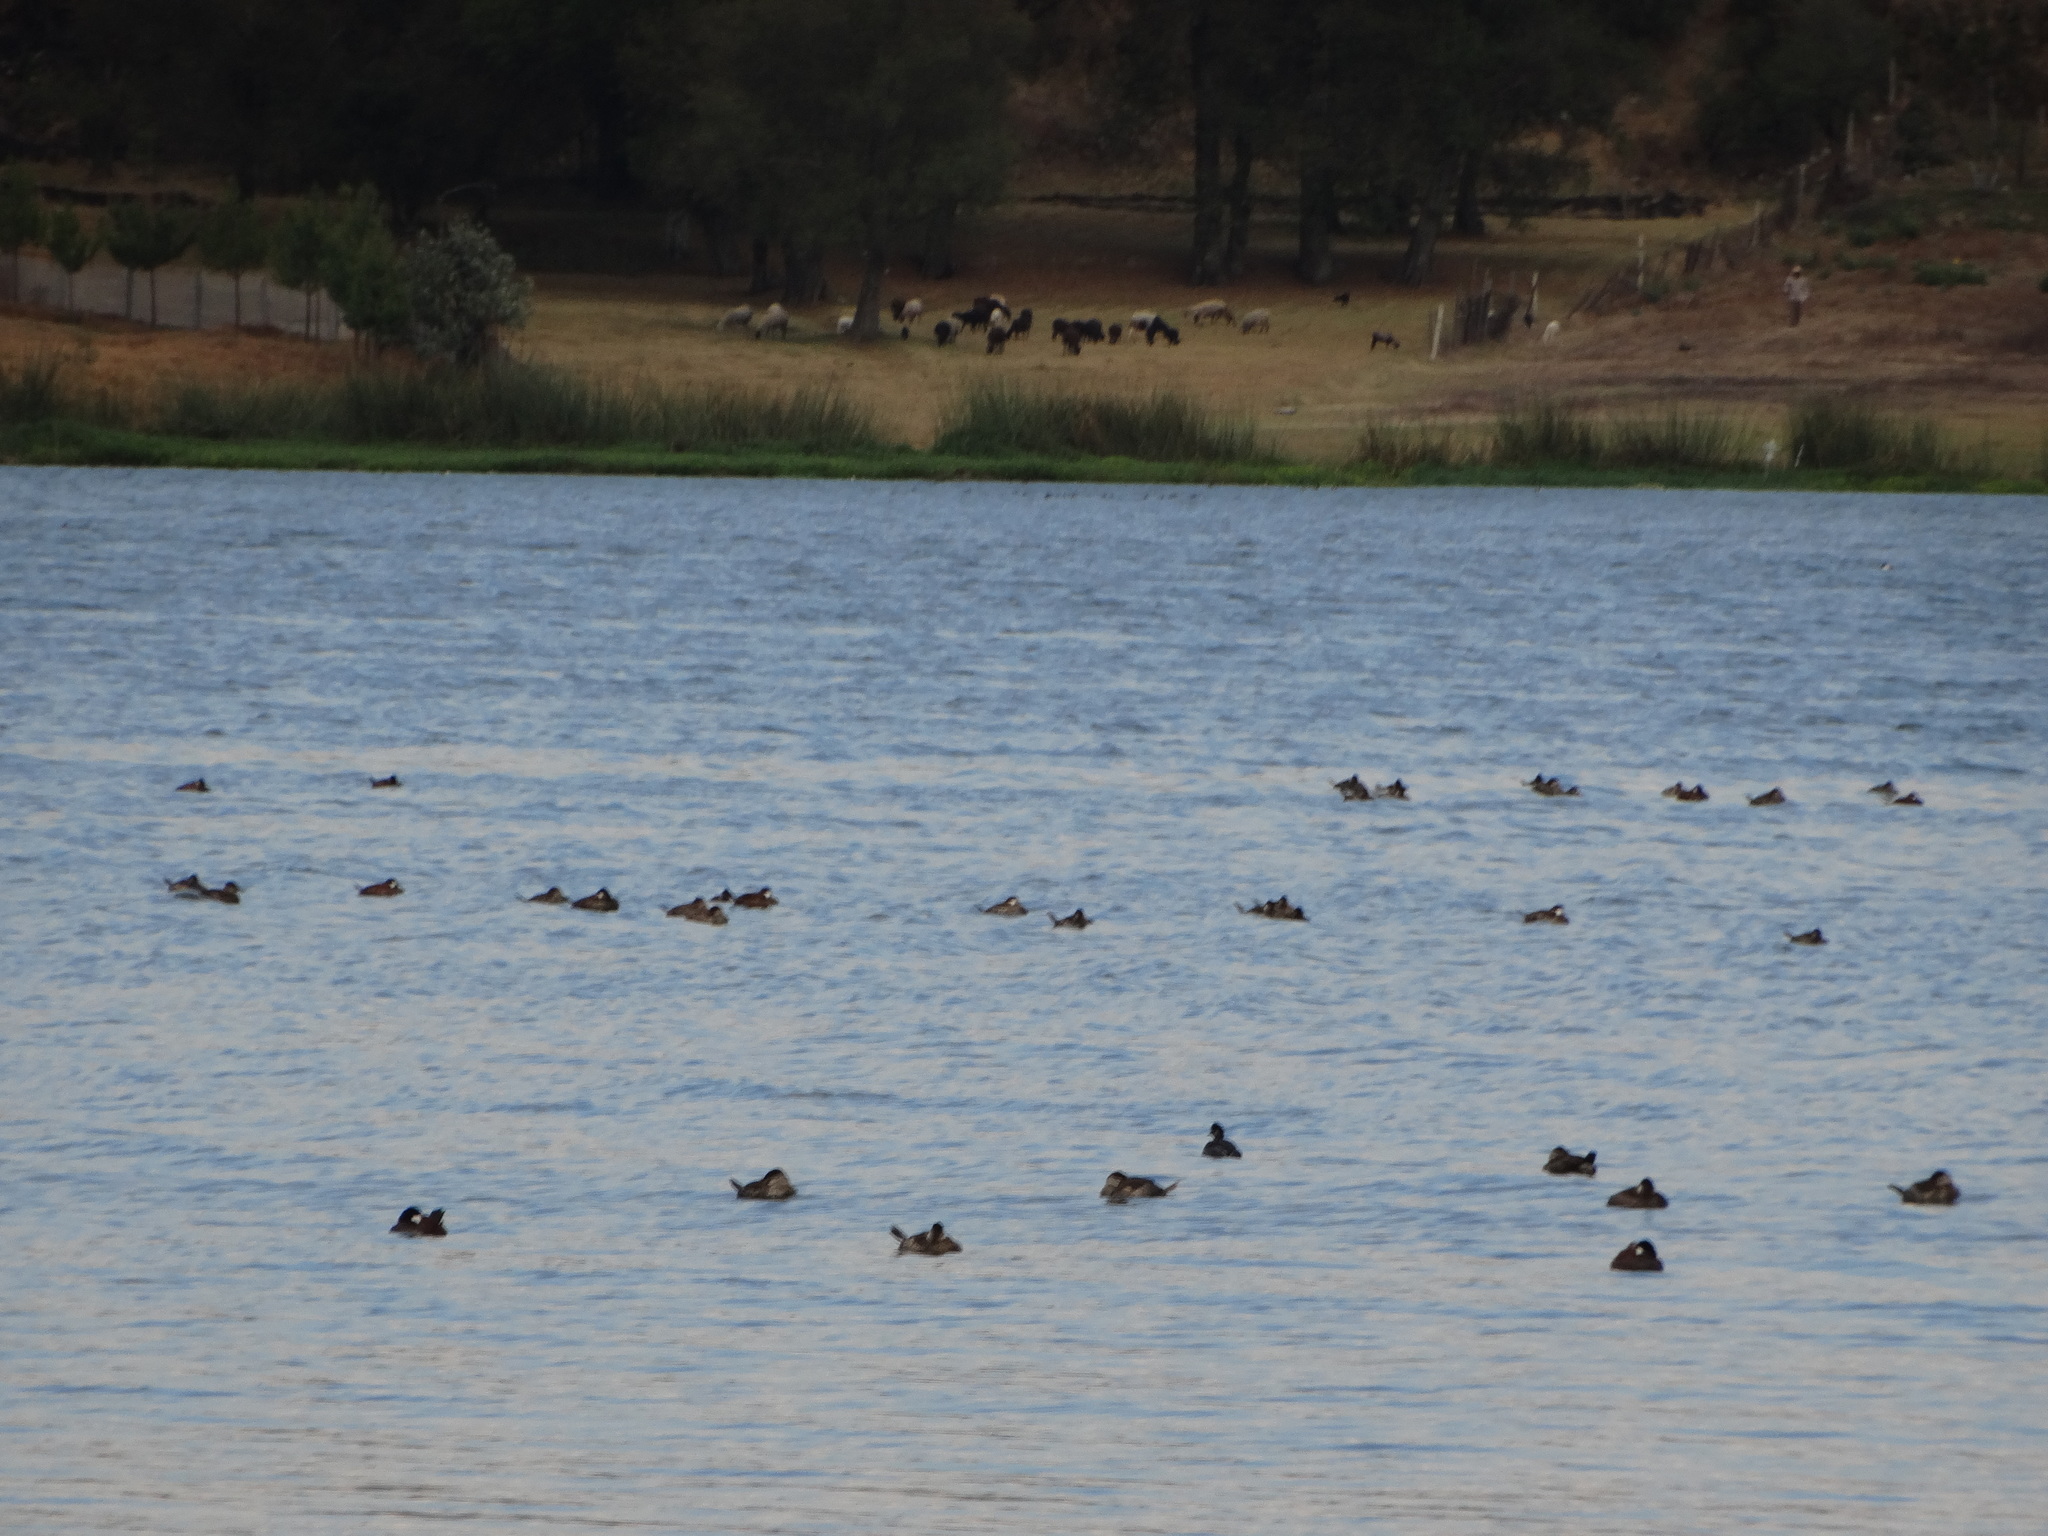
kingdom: Animalia
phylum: Chordata
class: Aves
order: Anseriformes
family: Anatidae
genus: Oxyura
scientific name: Oxyura jamaicensis
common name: Ruddy duck
